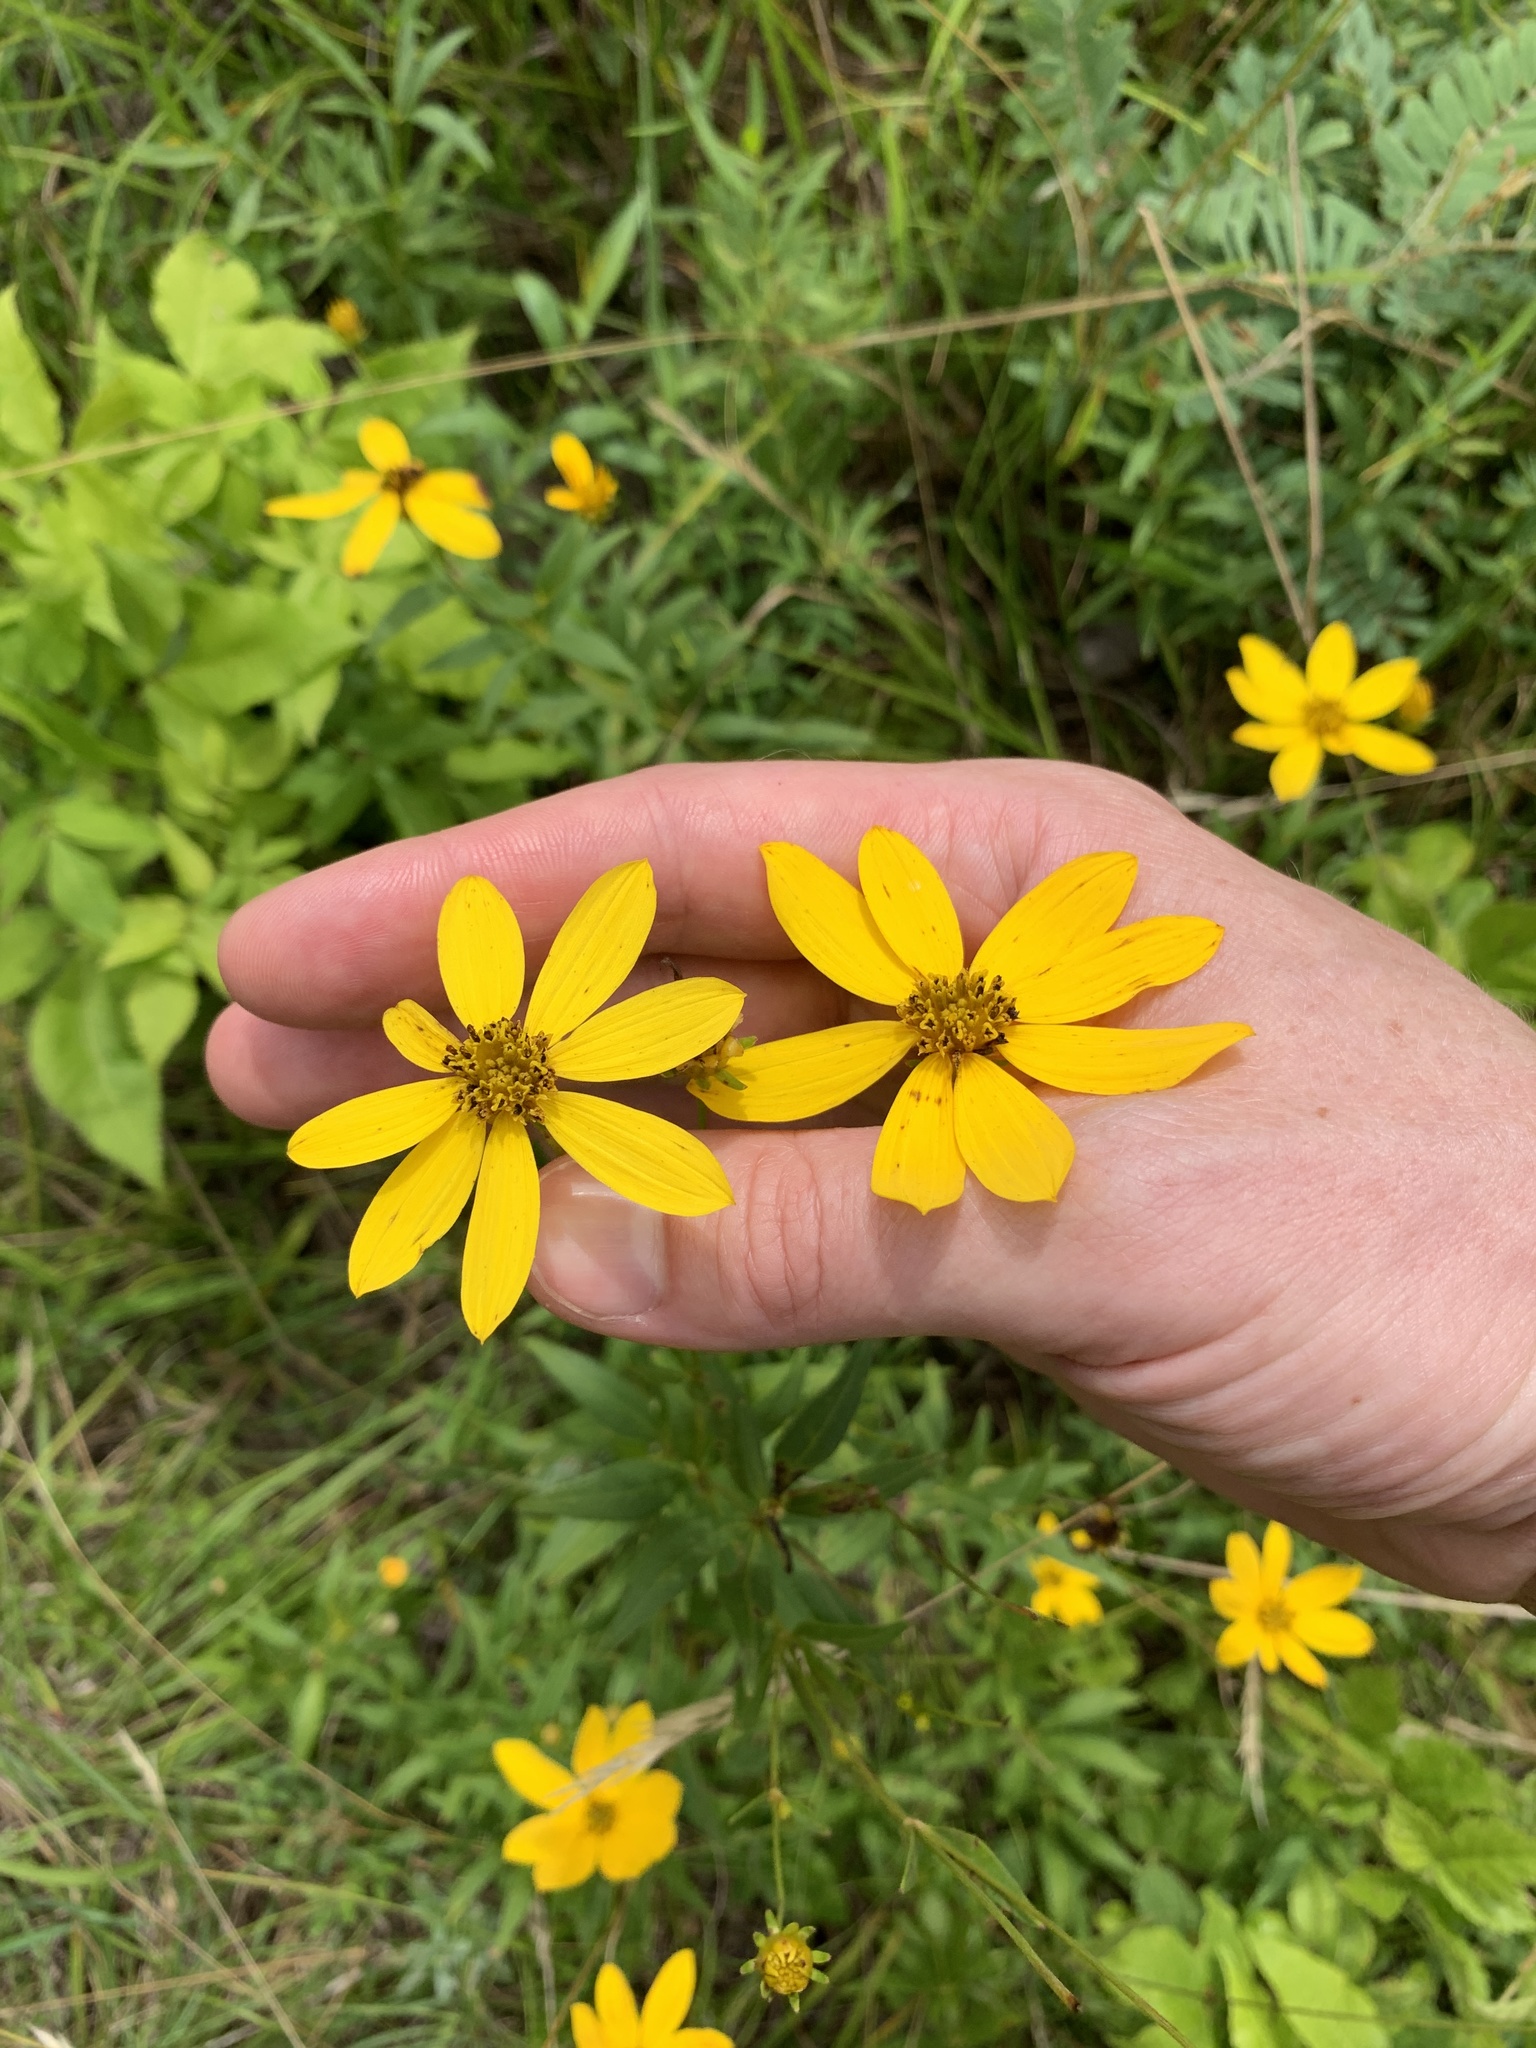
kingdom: Plantae
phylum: Tracheophyta
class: Magnoliopsida
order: Asterales
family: Asteraceae
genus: Coreopsis
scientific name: Coreopsis major
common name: Forest tickseed
